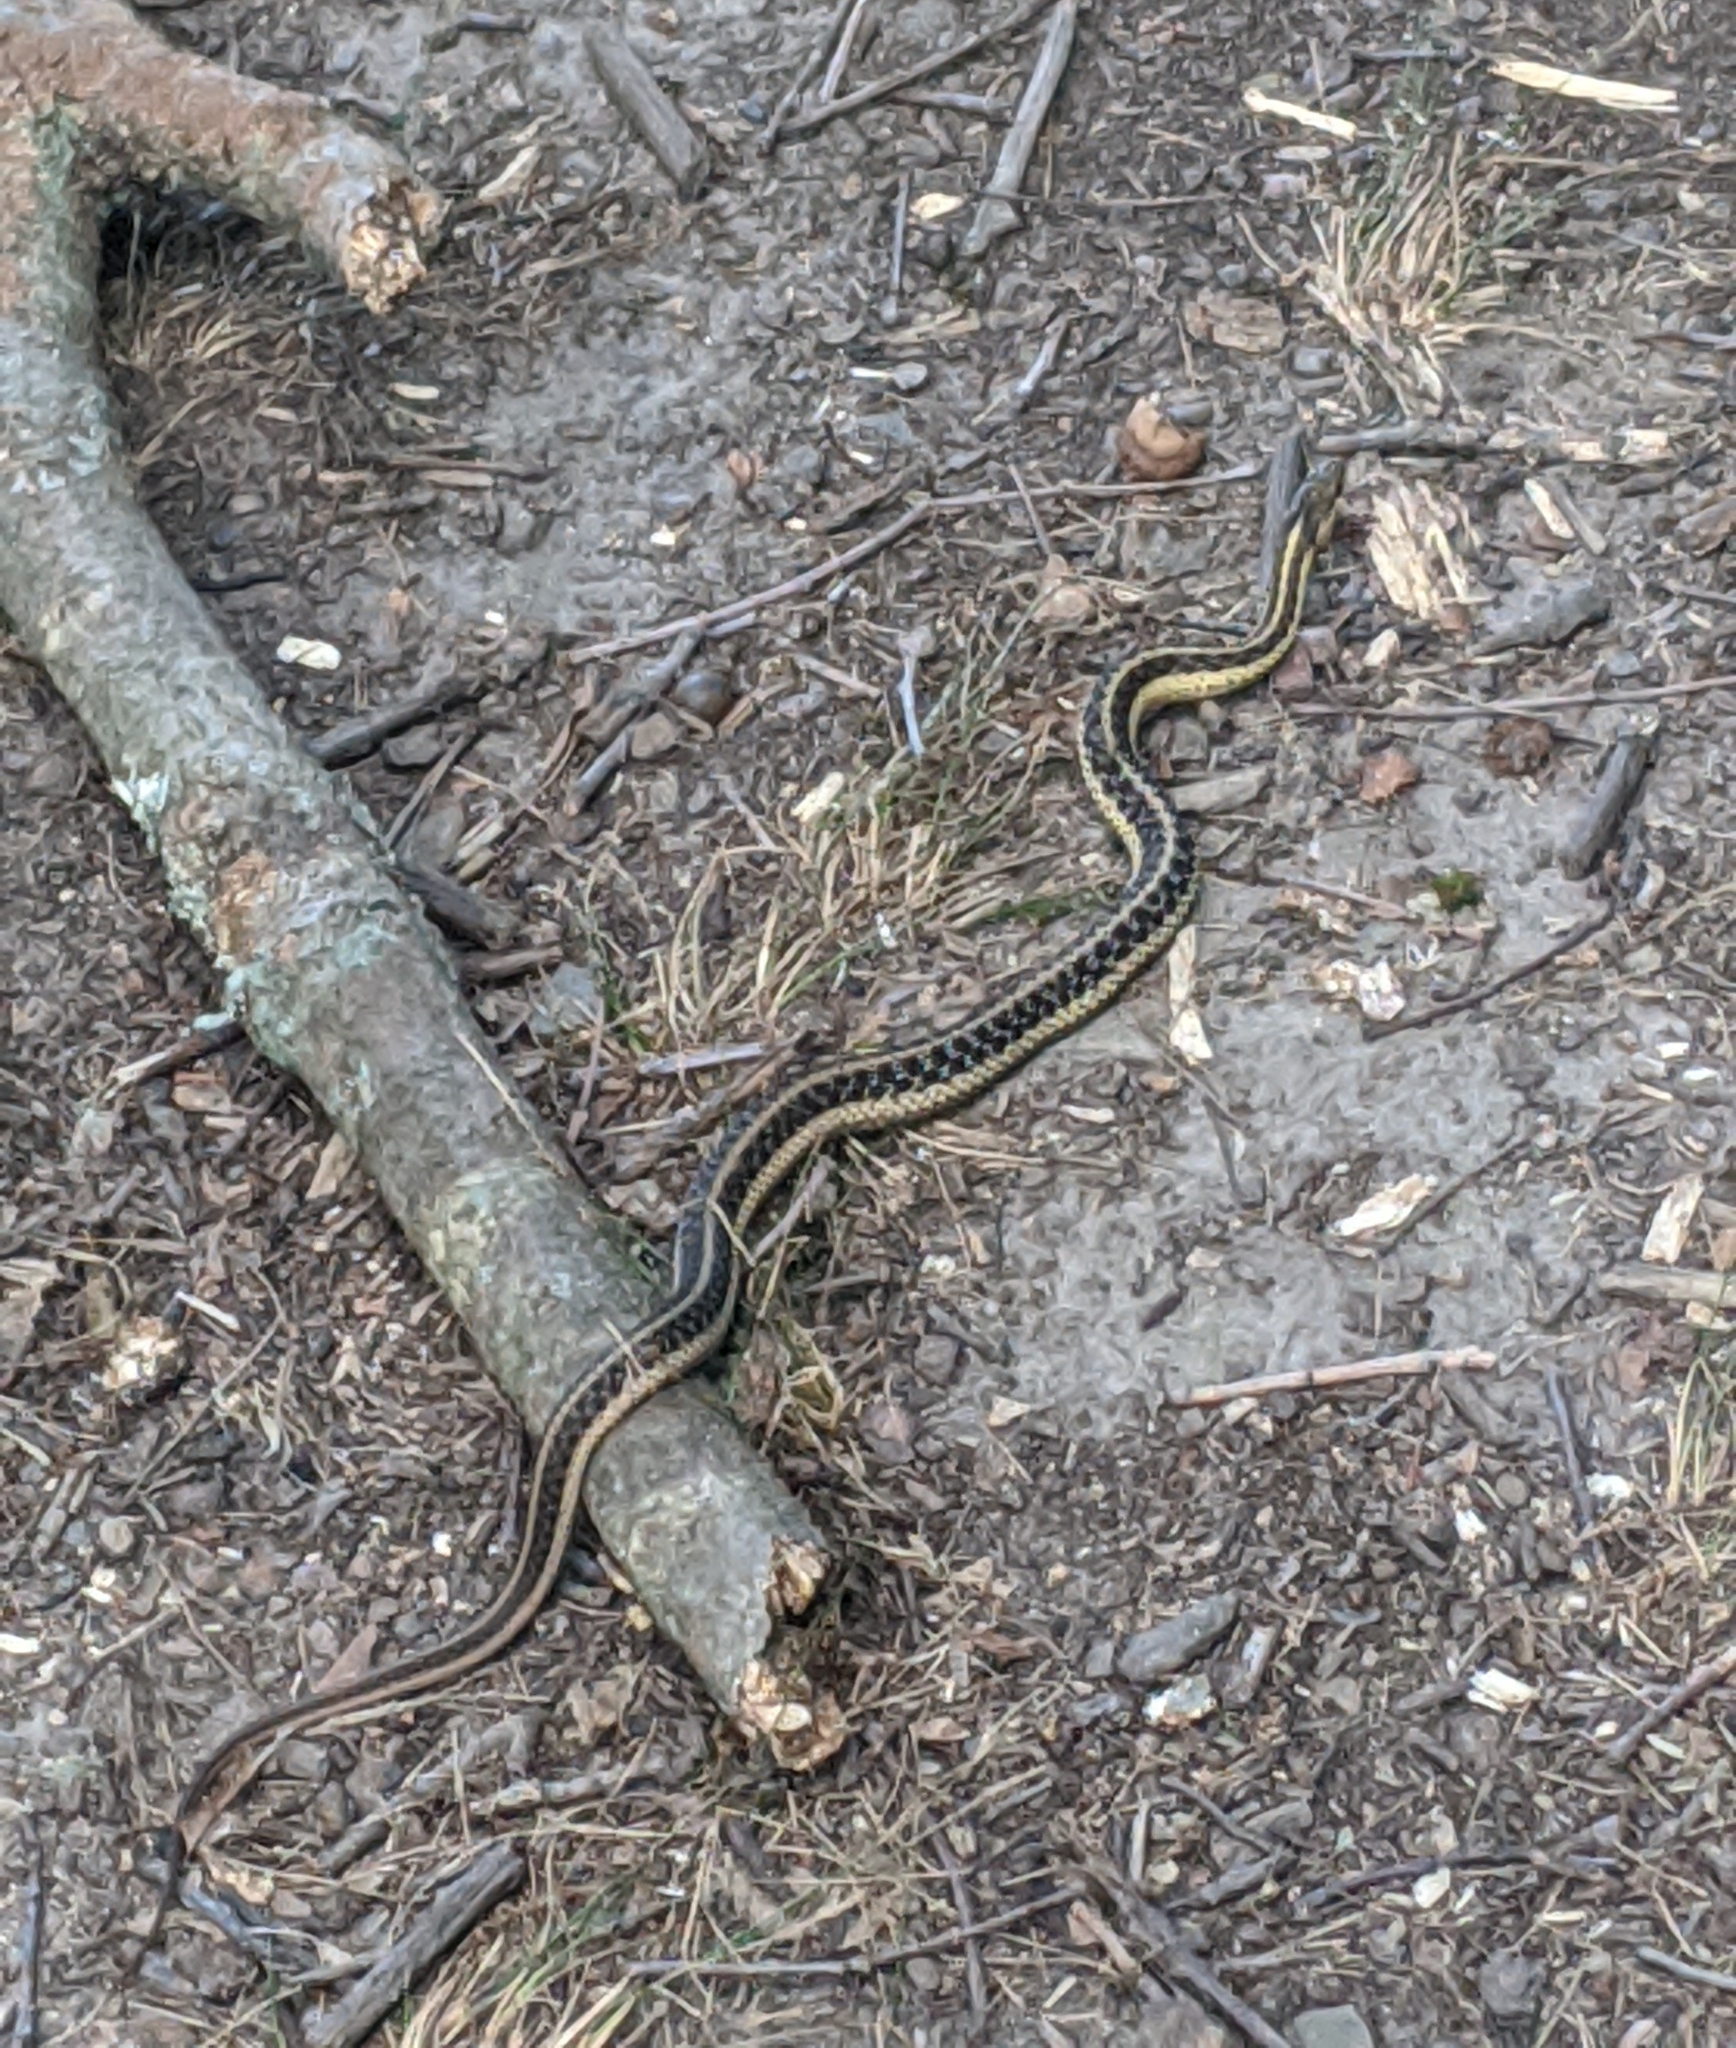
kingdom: Animalia
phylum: Chordata
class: Squamata
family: Colubridae
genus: Thamnophis
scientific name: Thamnophis sirtalis
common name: Common garter snake
